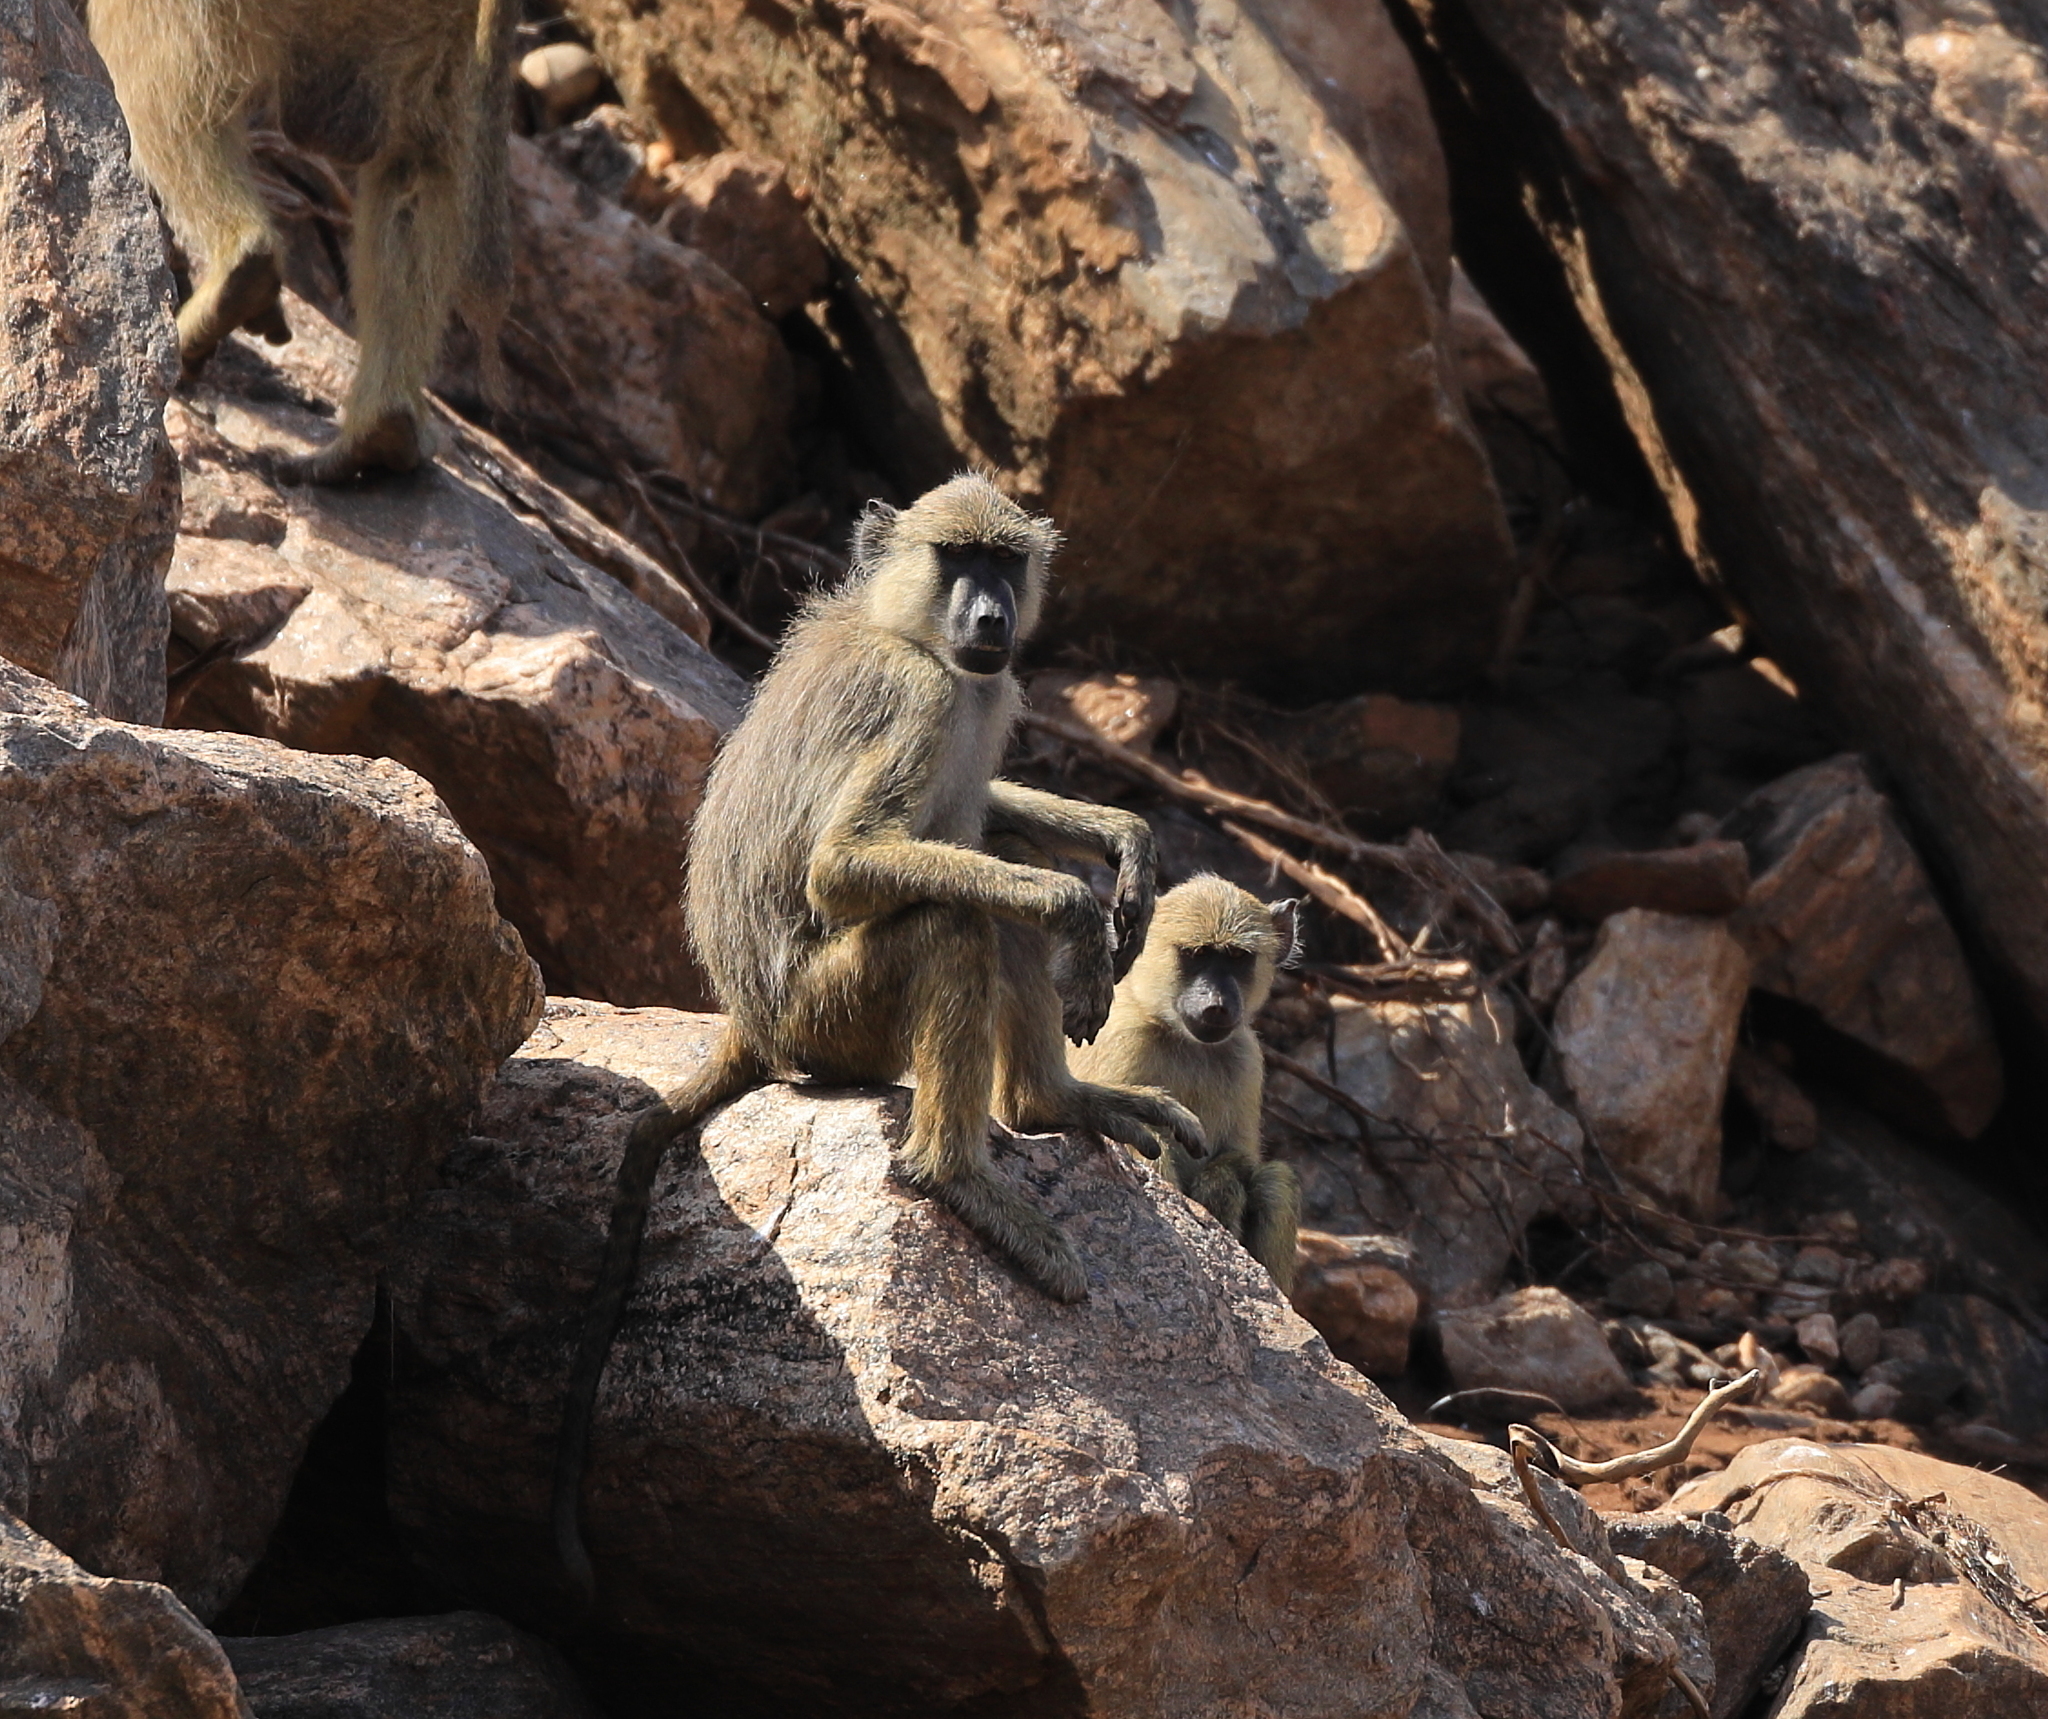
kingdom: Animalia
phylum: Chordata
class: Mammalia
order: Primates
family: Cercopithecidae
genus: Papio
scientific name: Papio cynocephalus
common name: Yellow baboon
